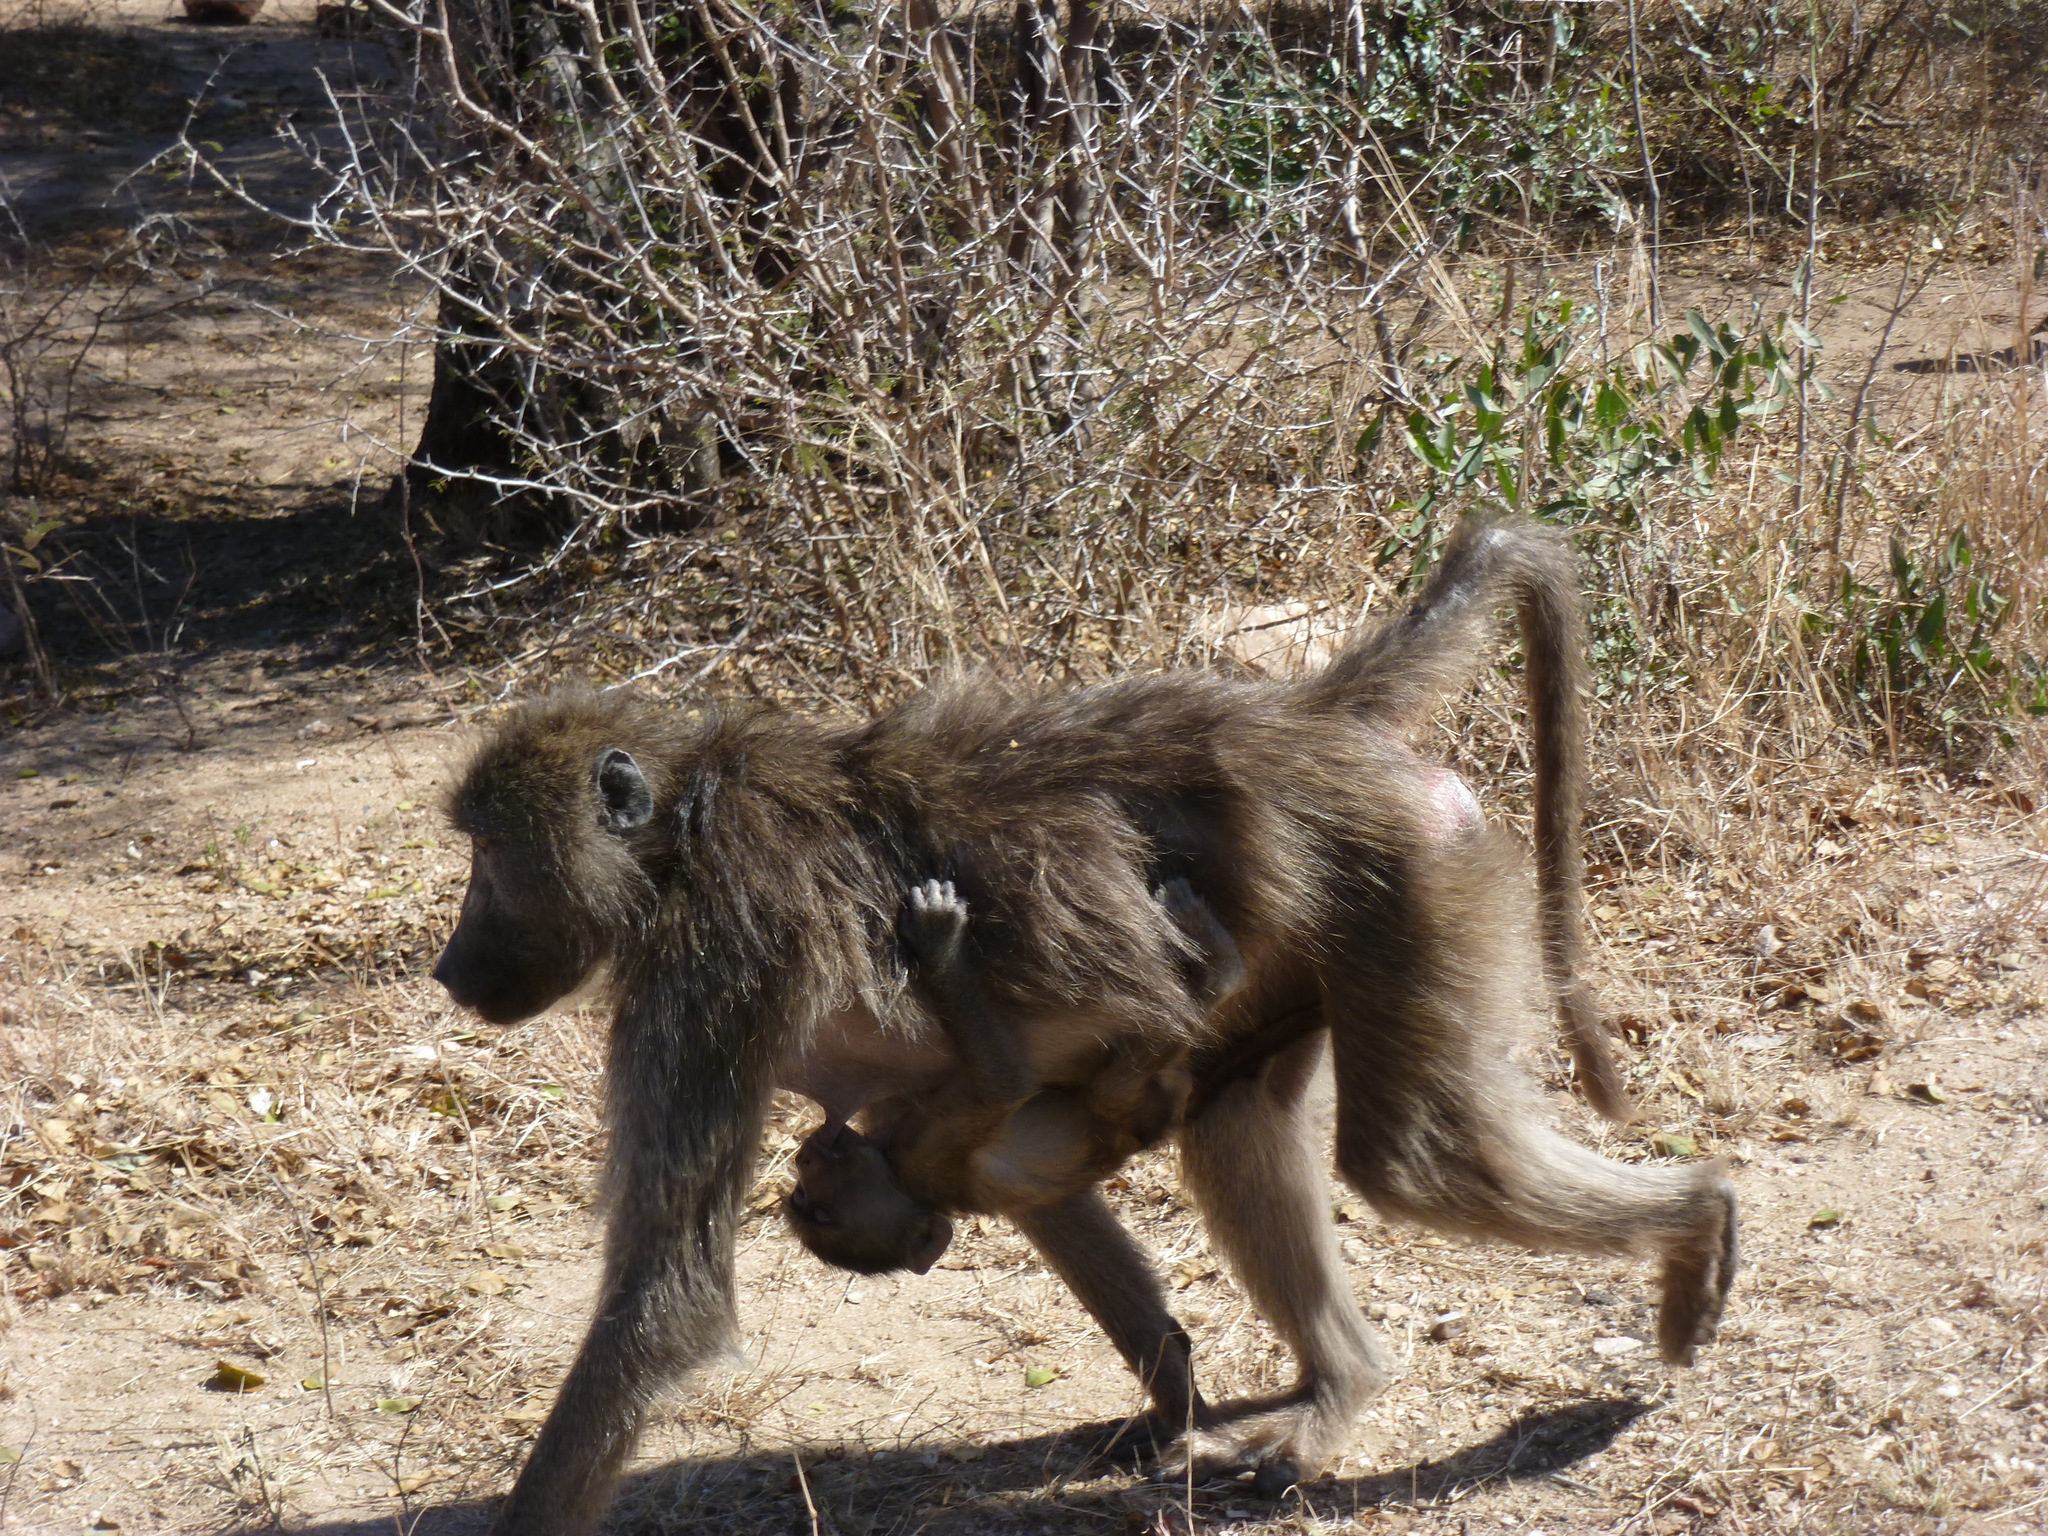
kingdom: Animalia
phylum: Chordata
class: Mammalia
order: Primates
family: Cercopithecidae
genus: Papio
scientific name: Papio ursinus
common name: Chacma baboon
